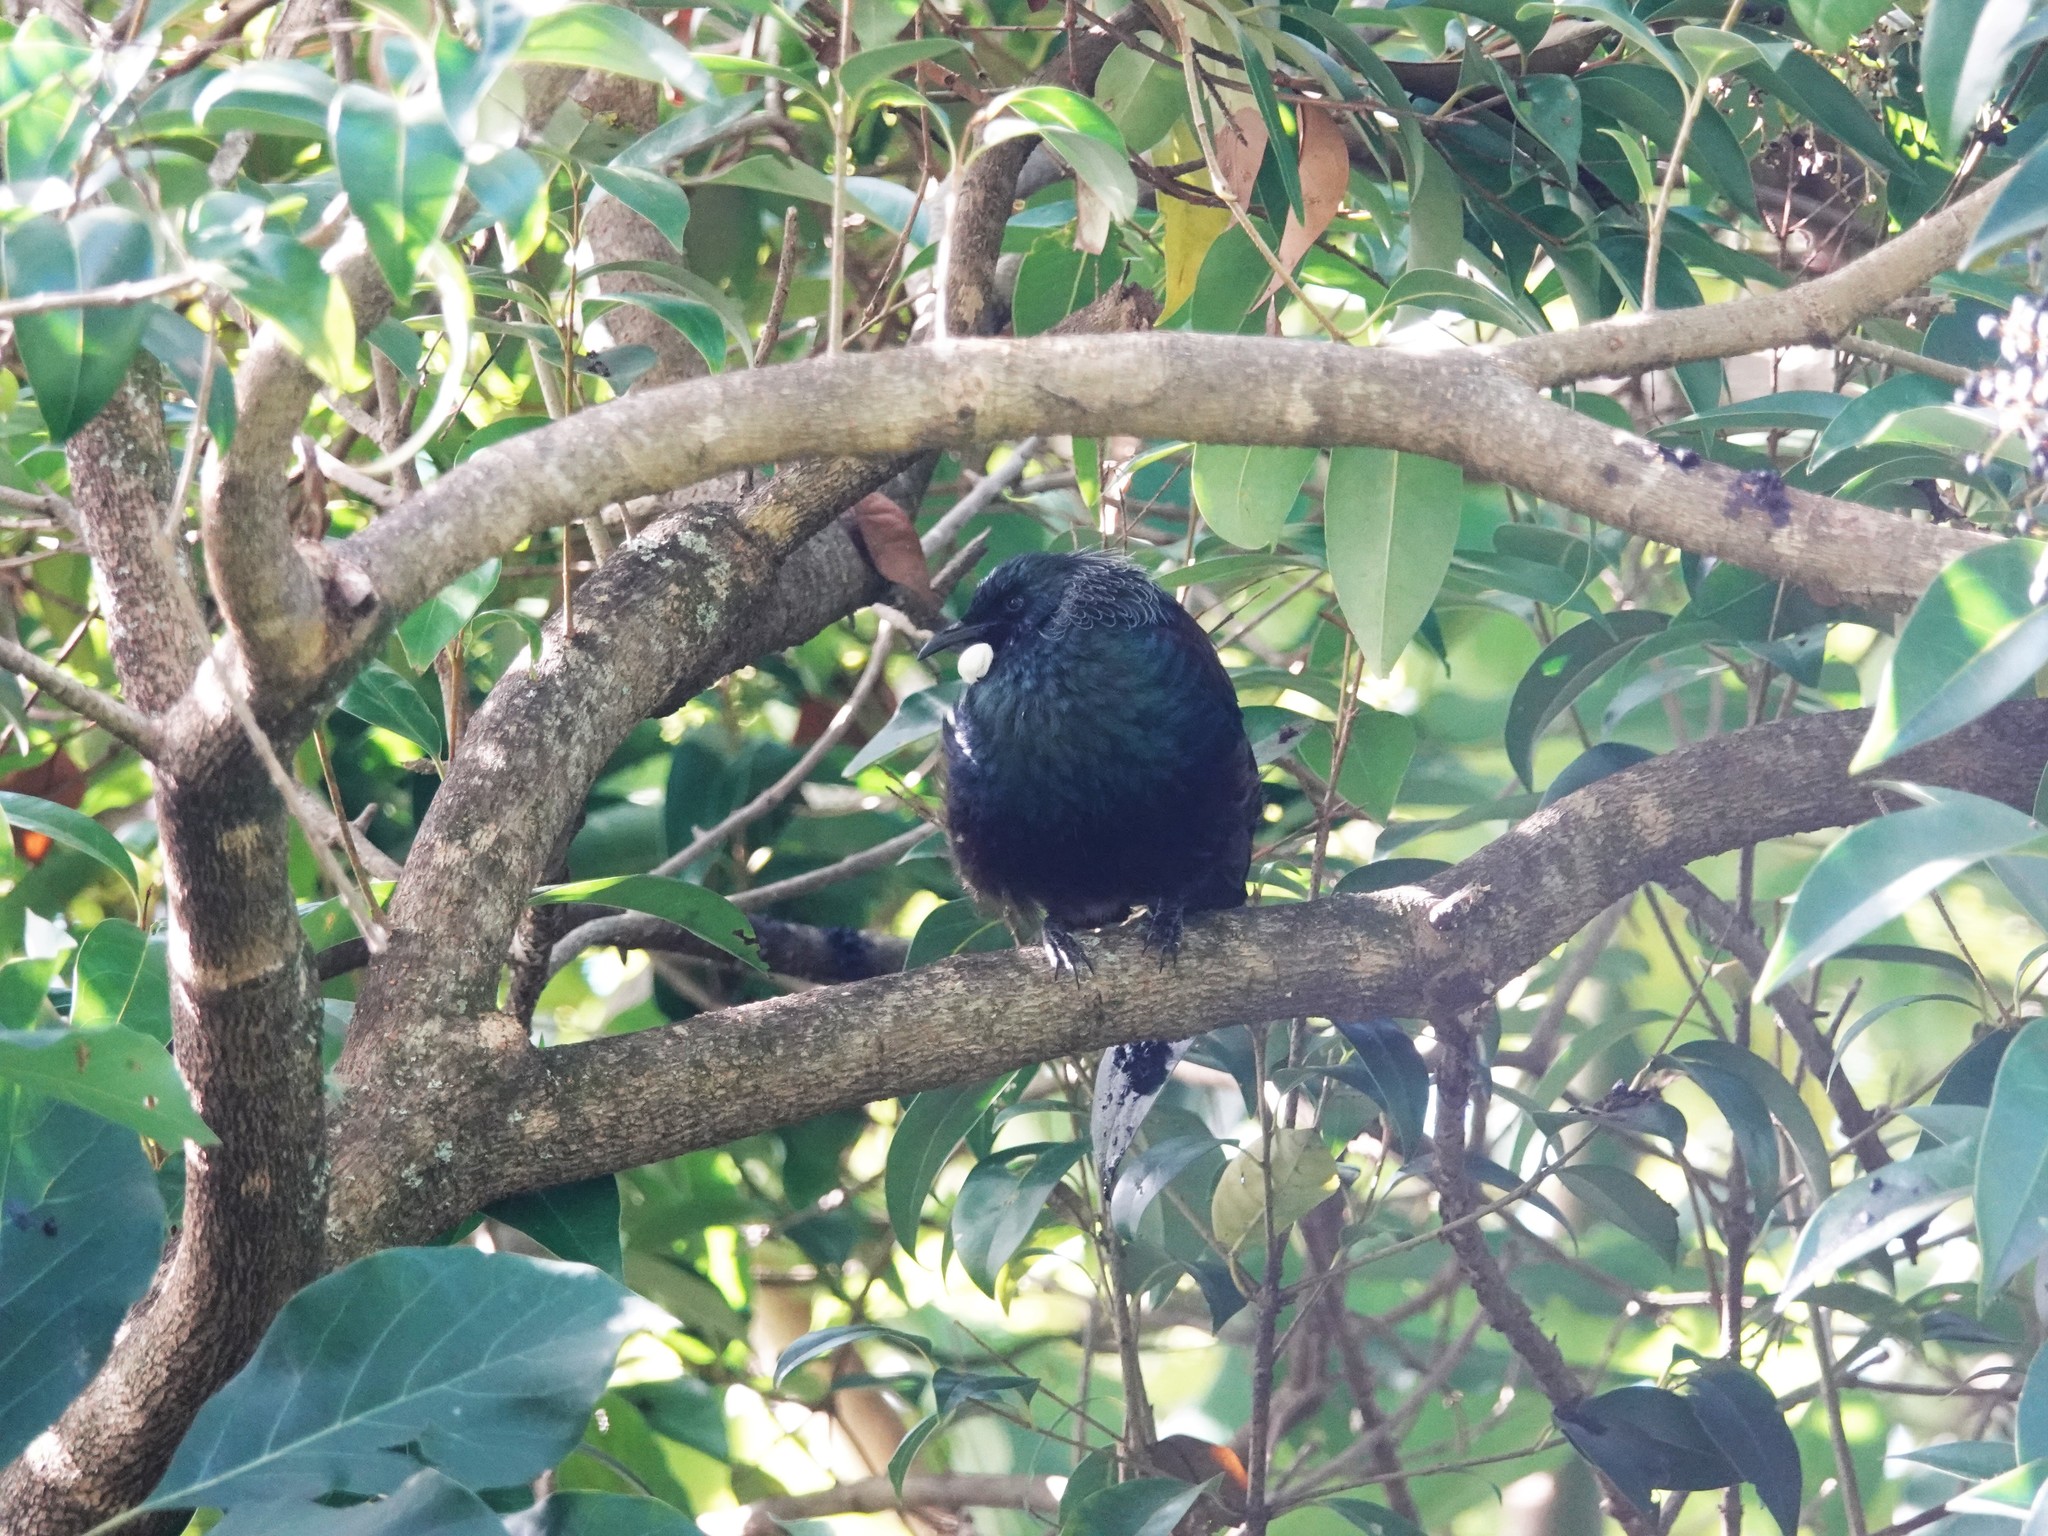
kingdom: Animalia
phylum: Chordata
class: Aves
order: Passeriformes
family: Meliphagidae
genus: Prosthemadera
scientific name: Prosthemadera novaeseelandiae
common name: Tui
